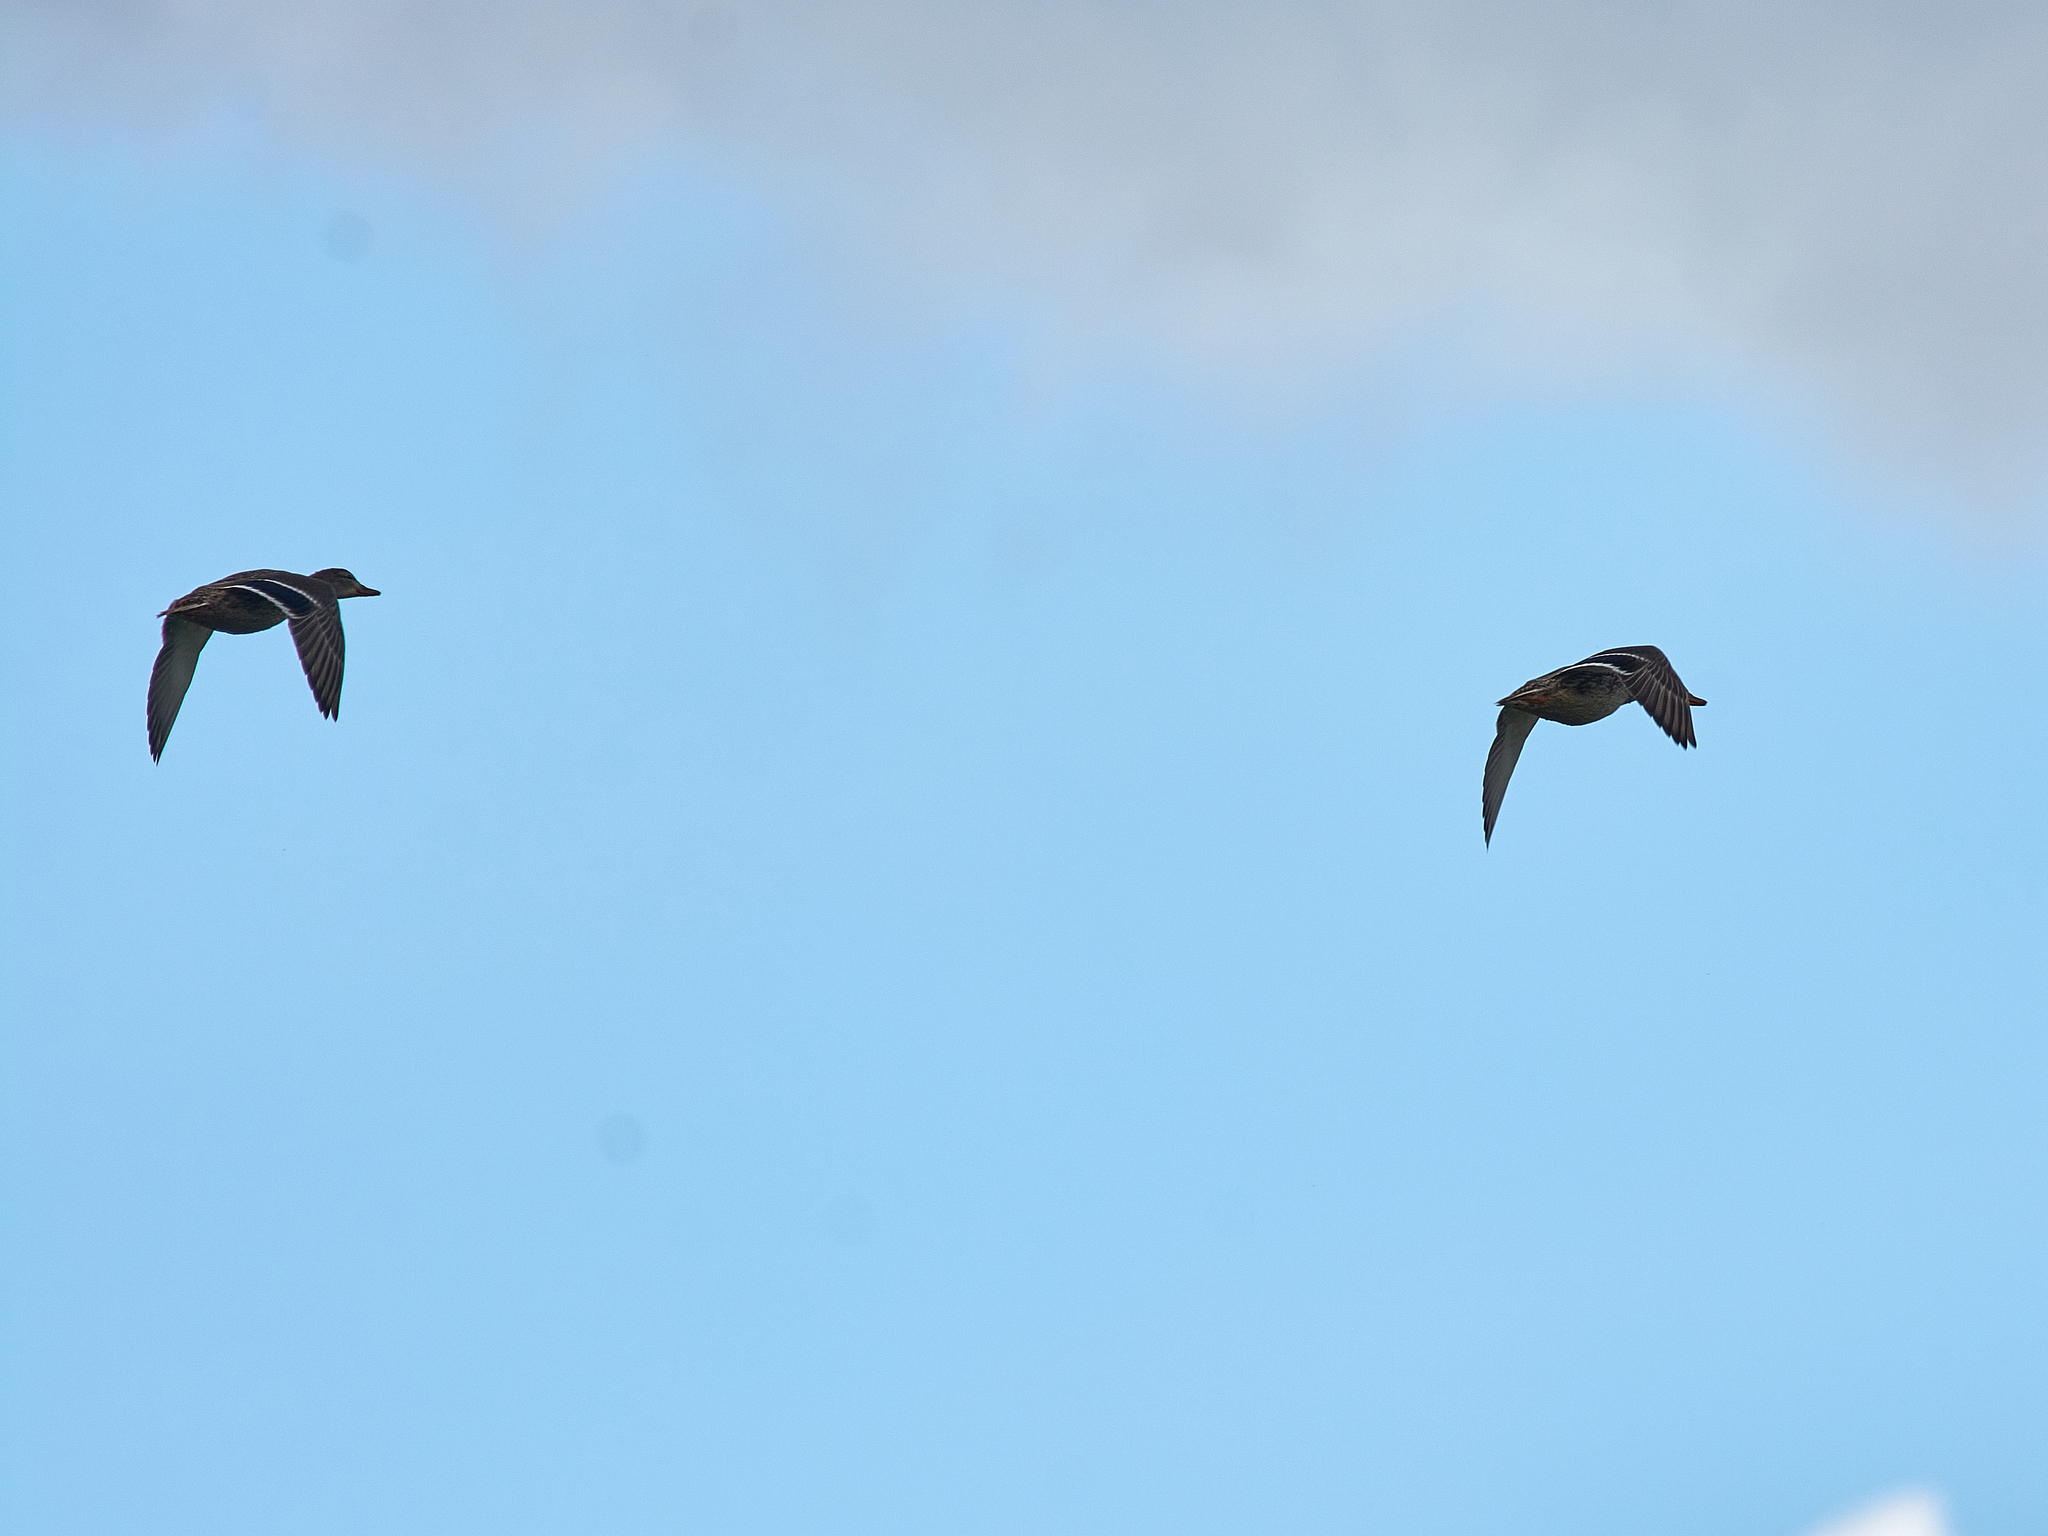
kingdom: Animalia
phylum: Chordata
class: Aves
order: Anseriformes
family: Anatidae
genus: Anas
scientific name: Anas platyrhynchos
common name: Mallard
